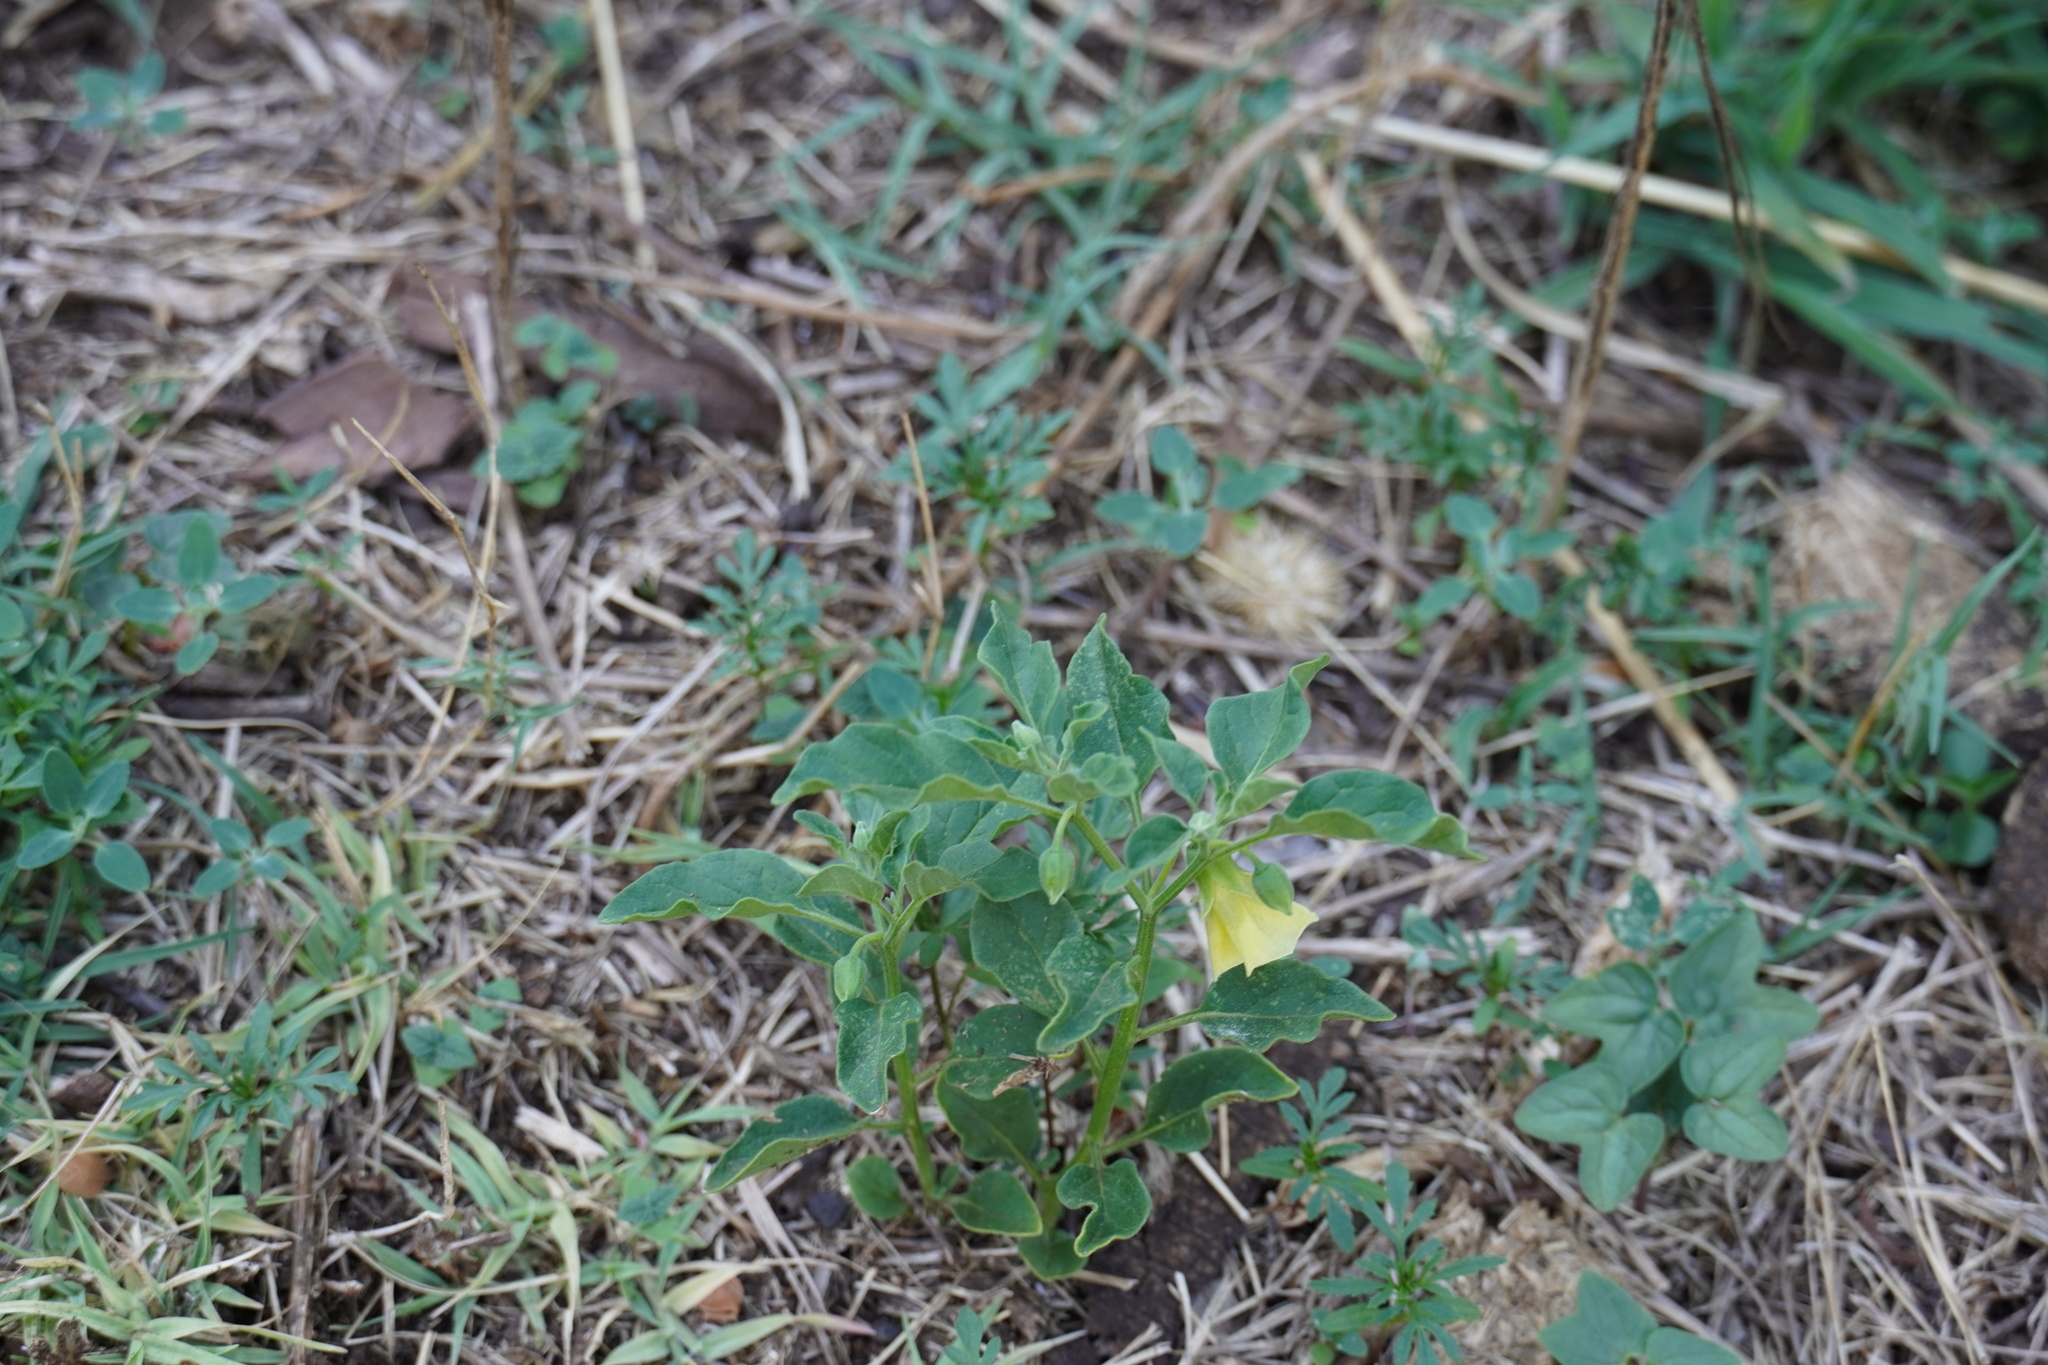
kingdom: Plantae
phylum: Tracheophyta
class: Magnoliopsida
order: Solanales
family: Solanaceae
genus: Physalis
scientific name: Physalis viscosa
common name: Stellate ground-cherry
